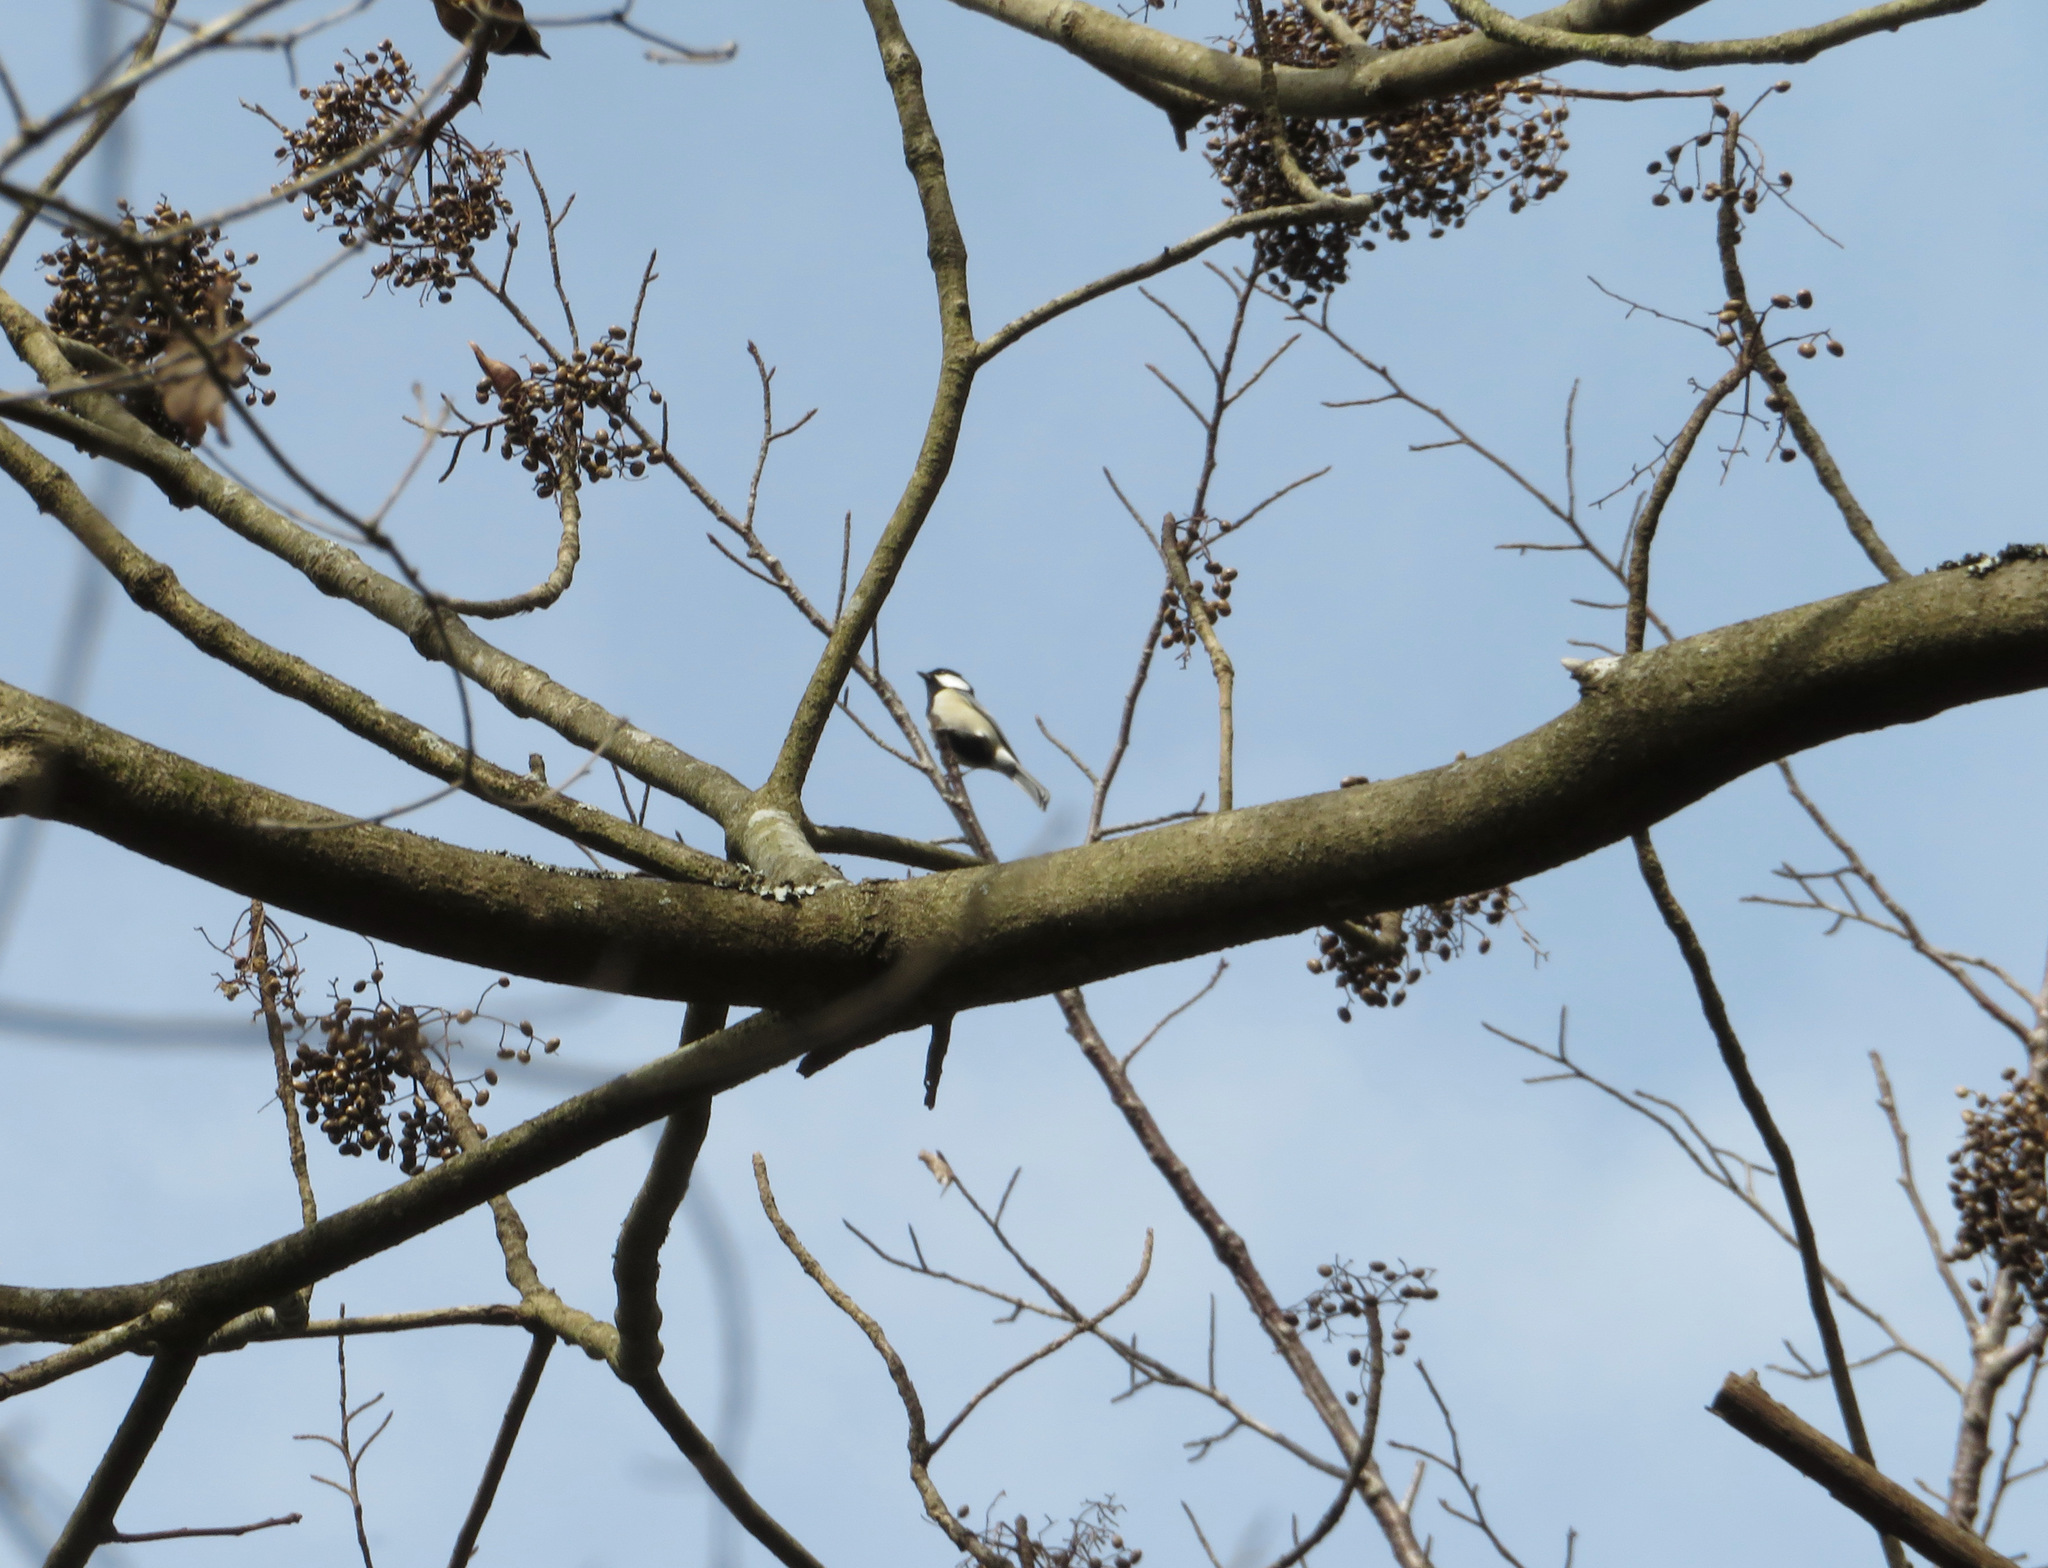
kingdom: Animalia
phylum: Chordata
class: Aves
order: Passeriformes
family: Paridae
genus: Parus
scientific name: Parus minor
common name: Japanese tit
